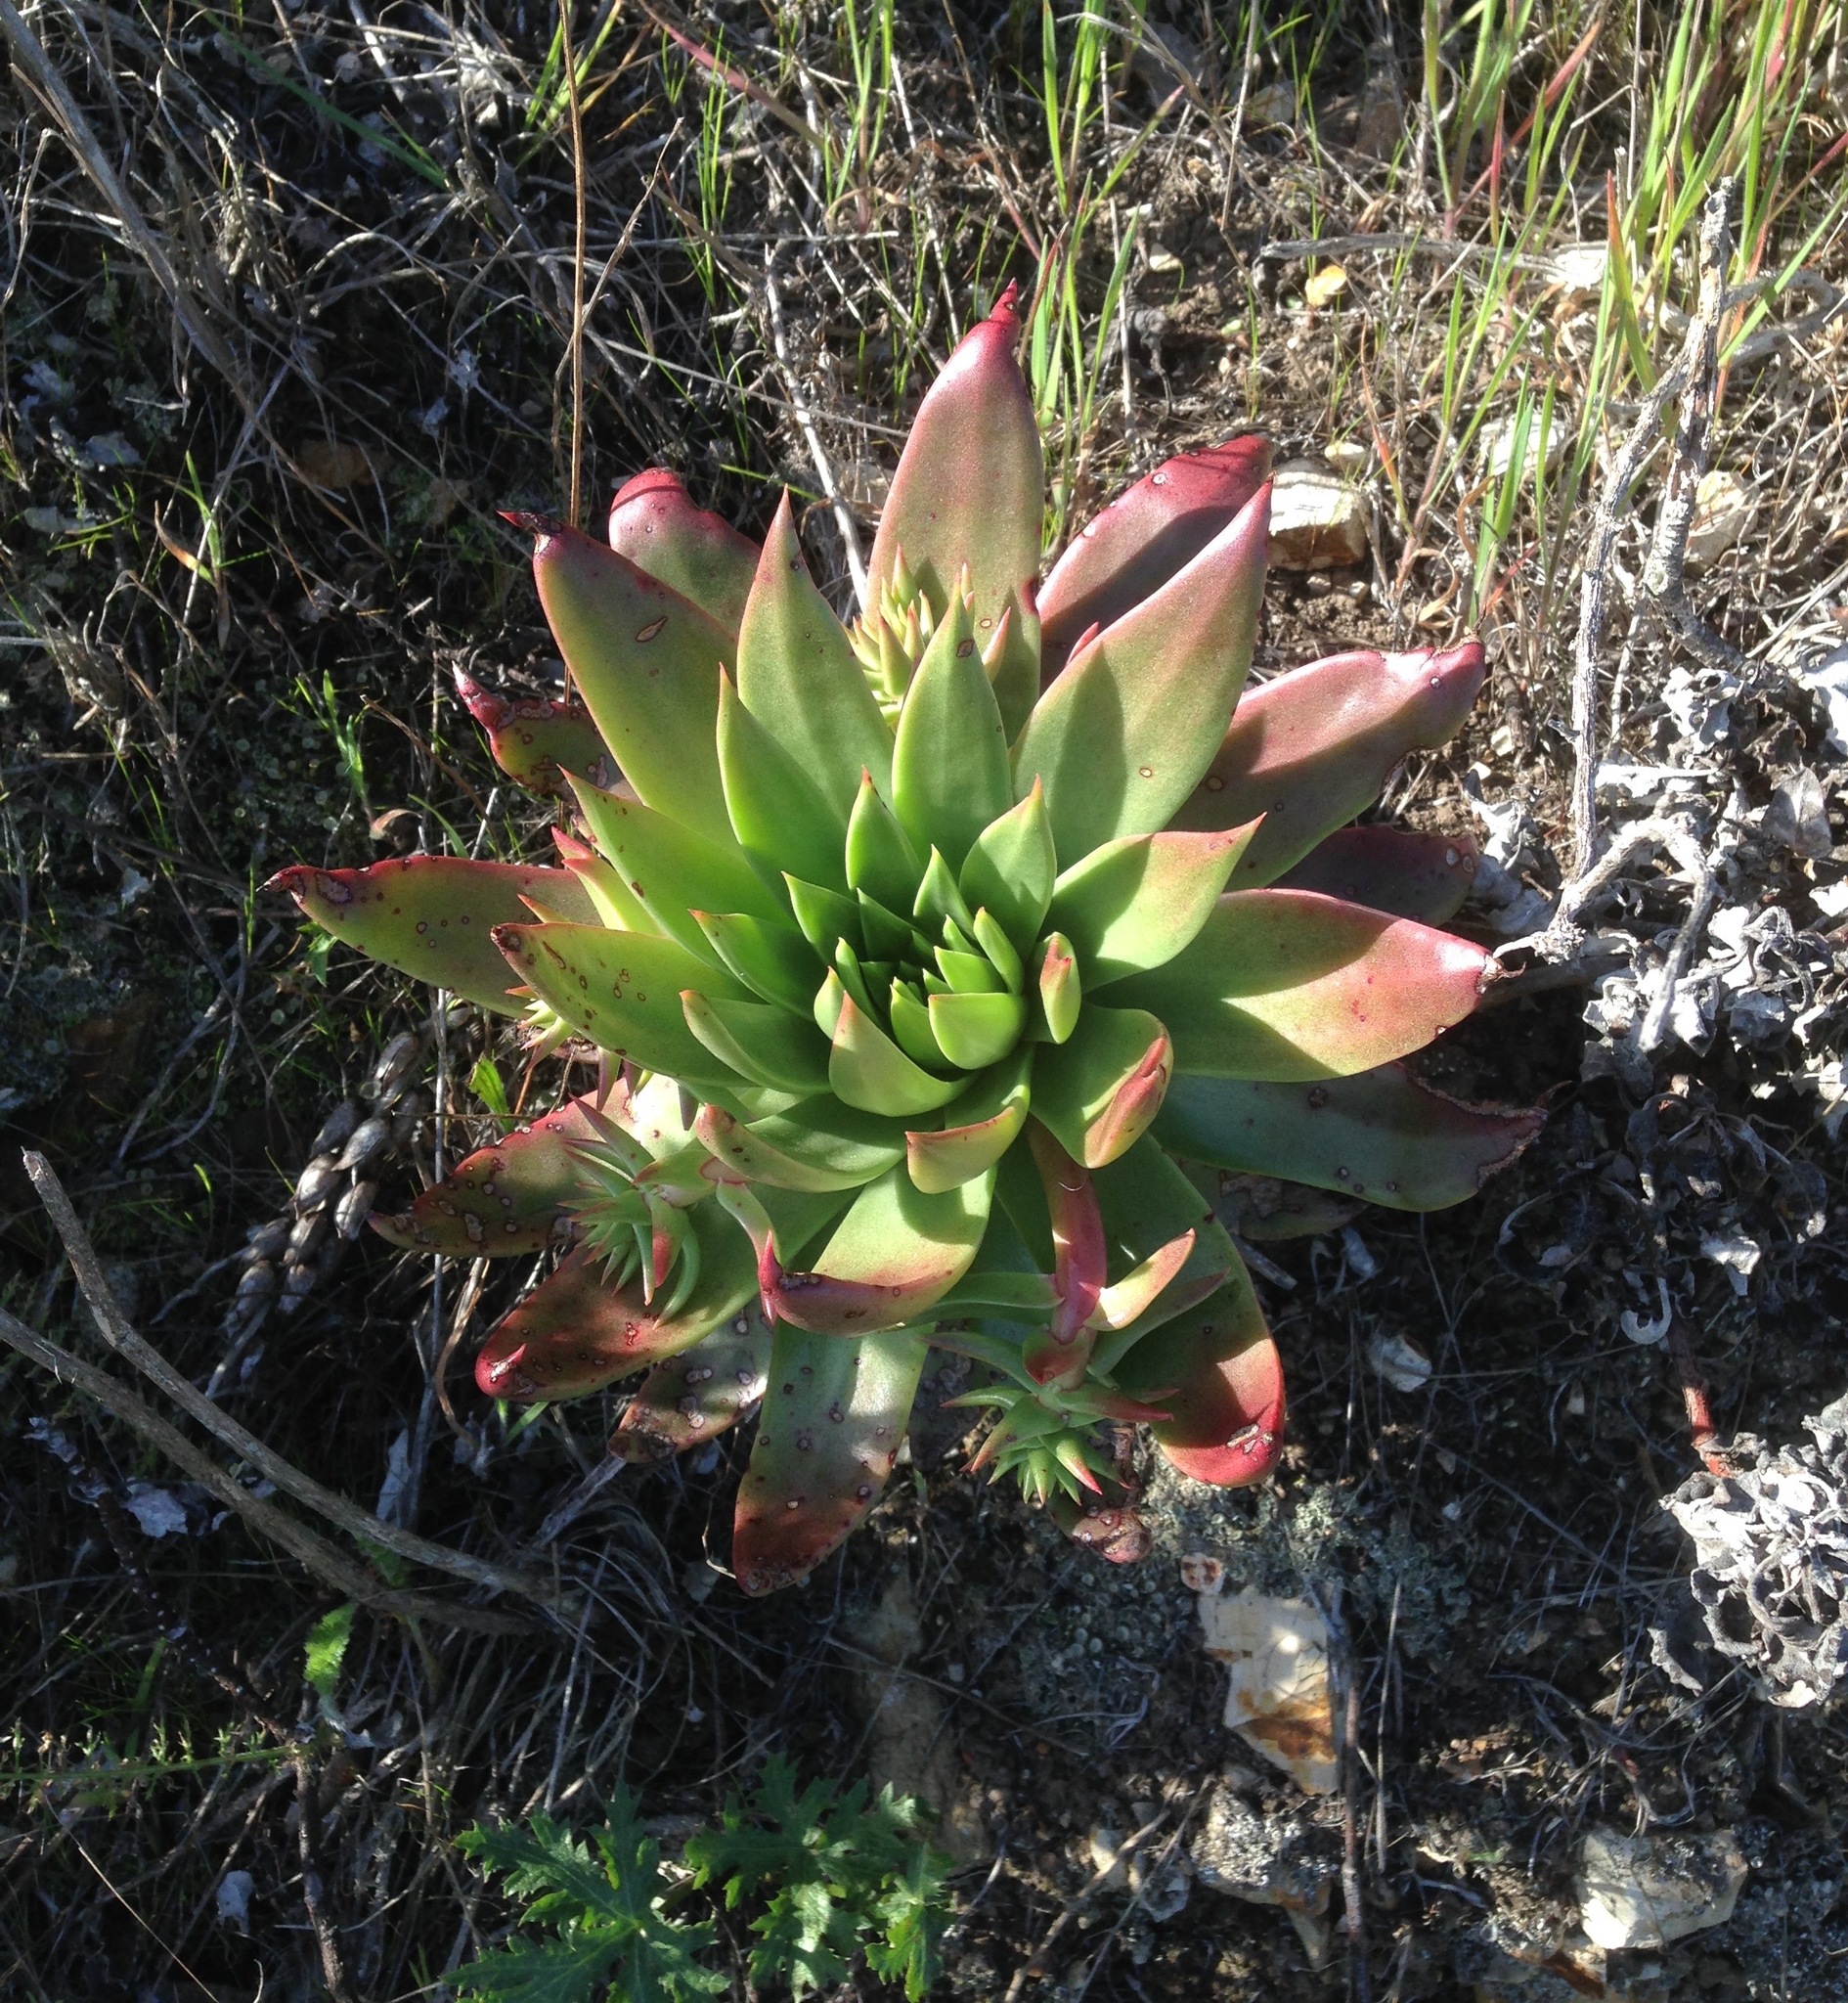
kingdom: Plantae
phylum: Tracheophyta
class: Magnoliopsida
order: Saxifragales
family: Crassulaceae
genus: Dudleya
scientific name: Dudleya candelabrum
